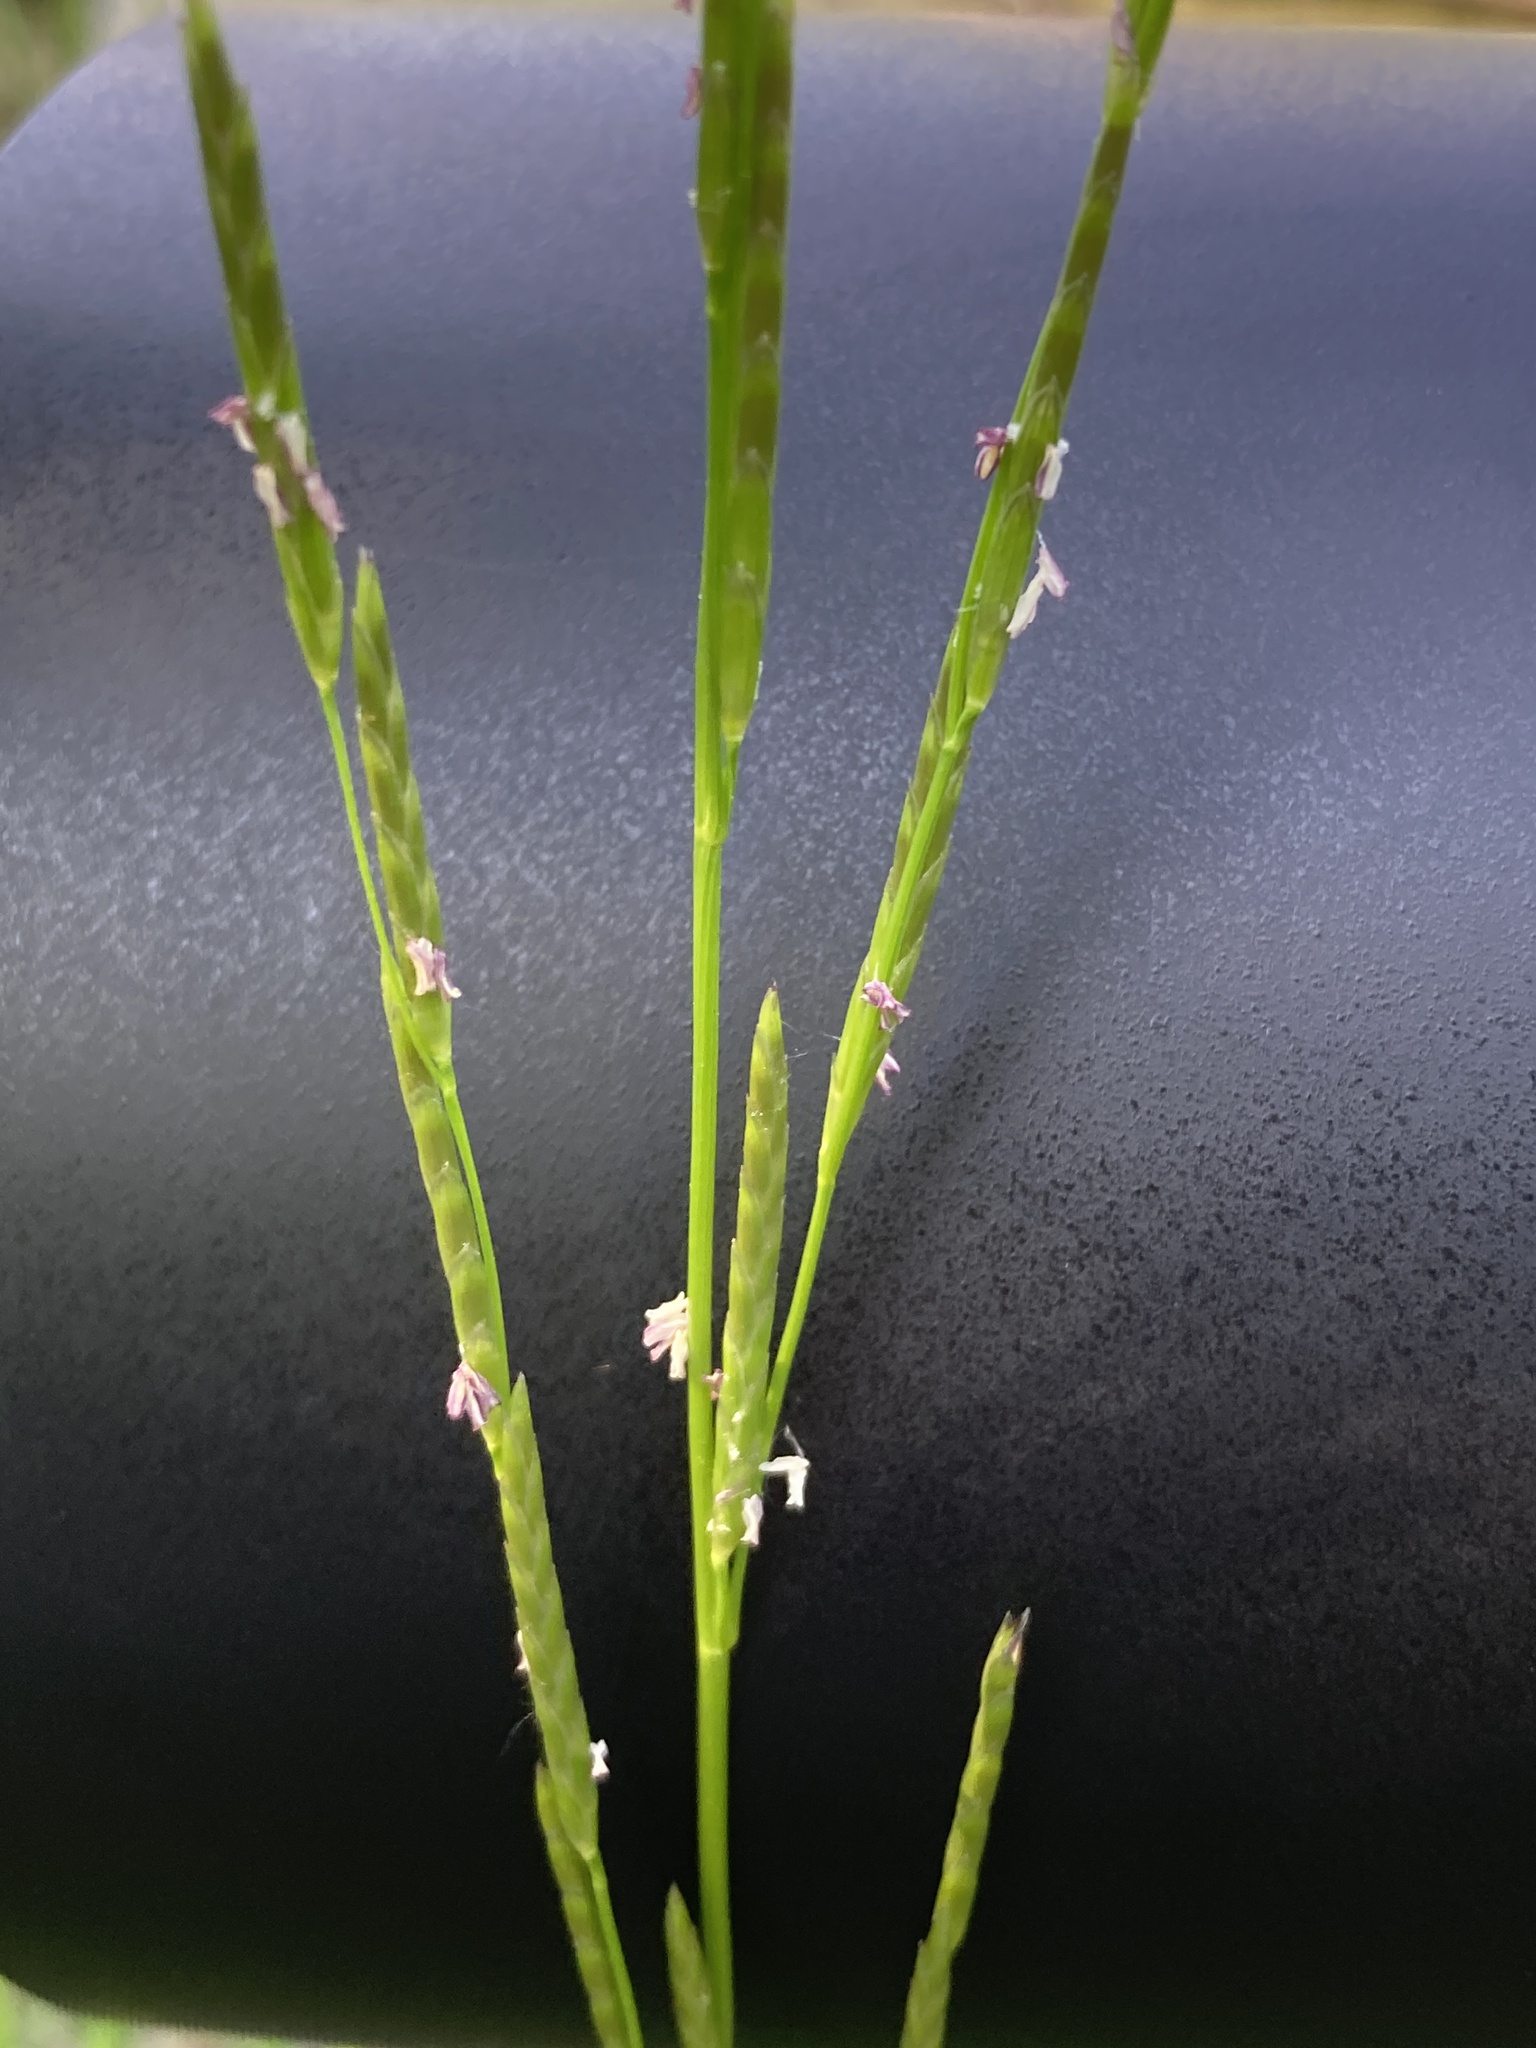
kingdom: Plantae
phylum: Tracheophyta
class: Liliopsida
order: Poales
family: Poaceae
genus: Glyceria
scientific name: Glyceria fluitans
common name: Floating sweet-grass
